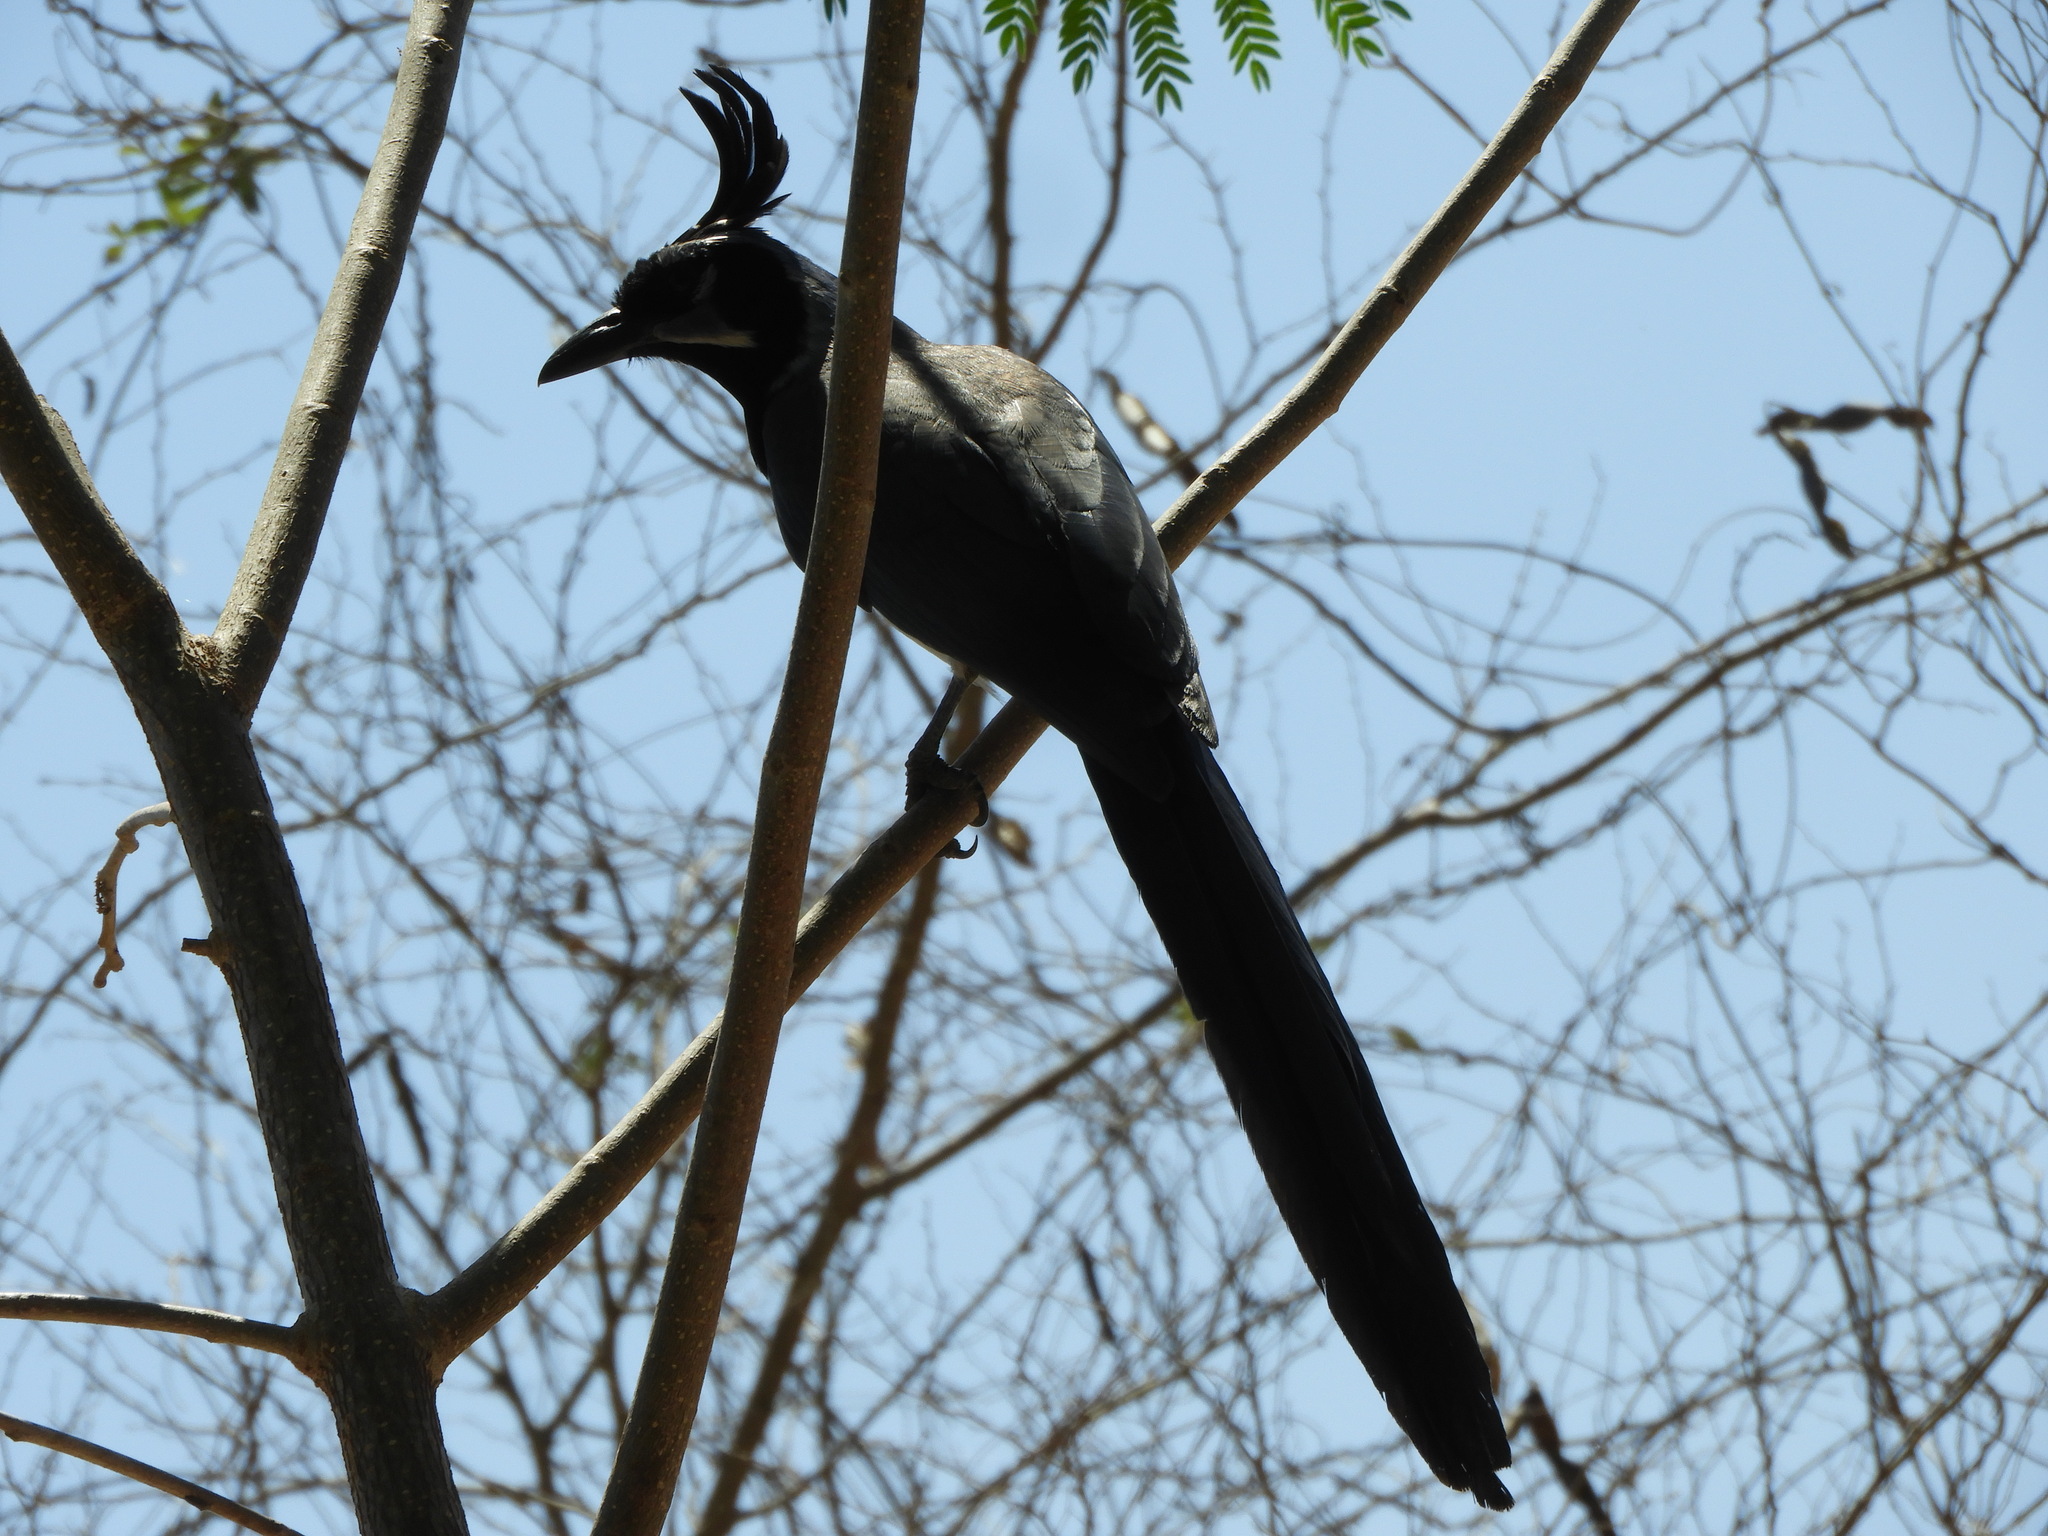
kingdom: Animalia
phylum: Chordata
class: Aves
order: Passeriformes
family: Corvidae
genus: Calocitta
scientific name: Calocitta colliei
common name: Black-throated magpie-jay
